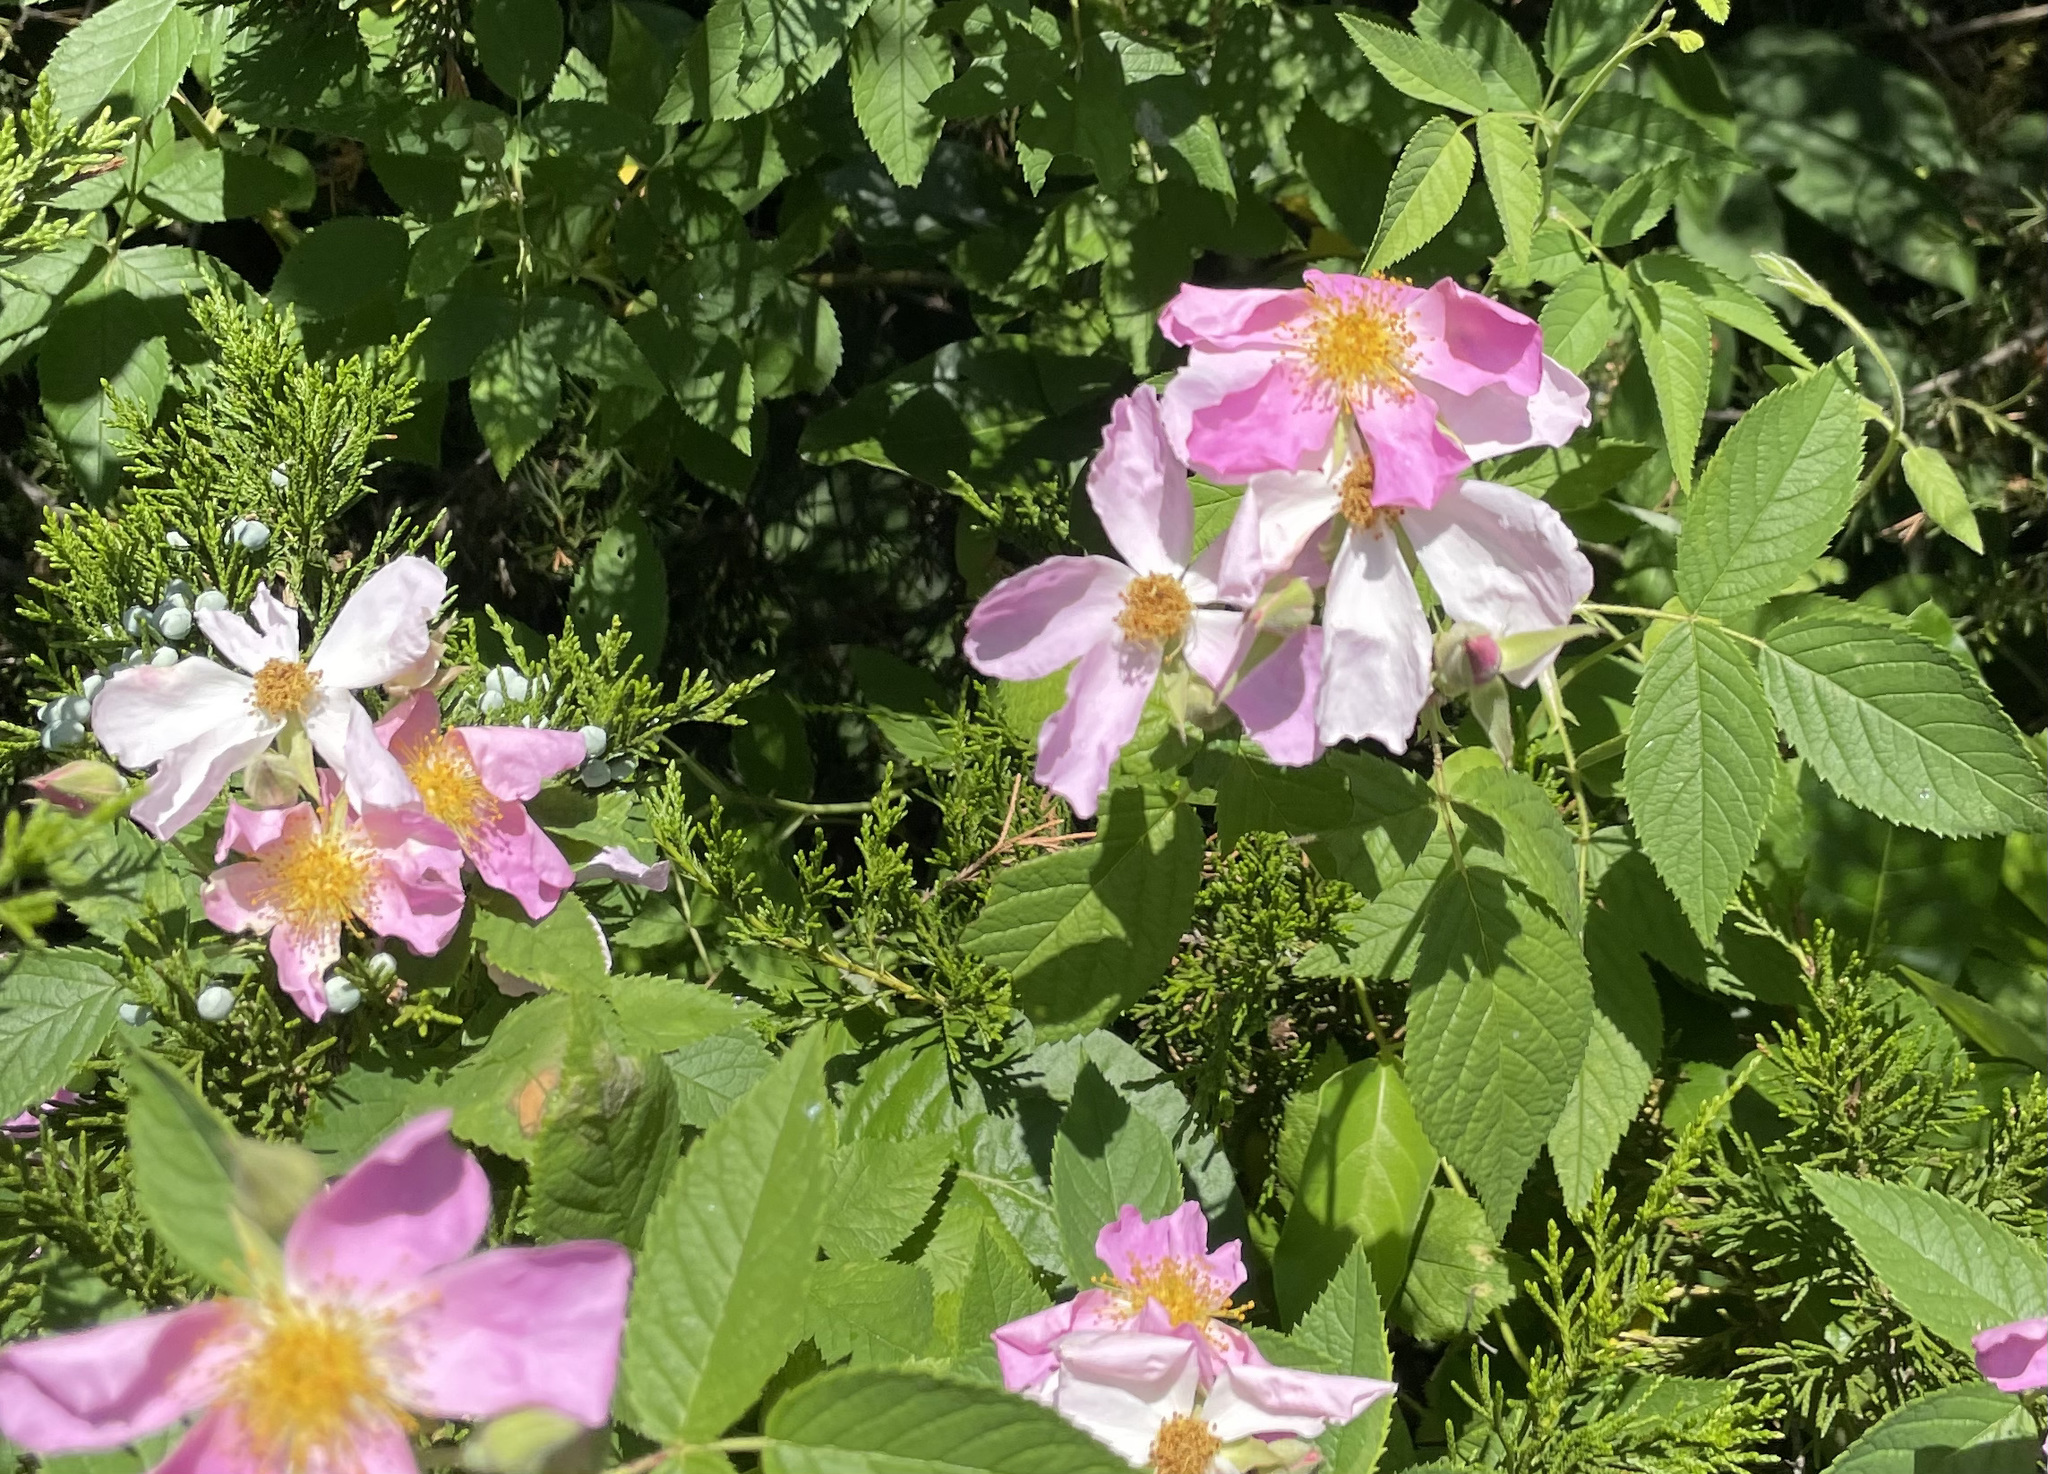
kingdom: Plantae
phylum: Tracheophyta
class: Magnoliopsida
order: Rosales
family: Rosaceae
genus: Rosa
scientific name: Rosa setigera
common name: Prairie rose
